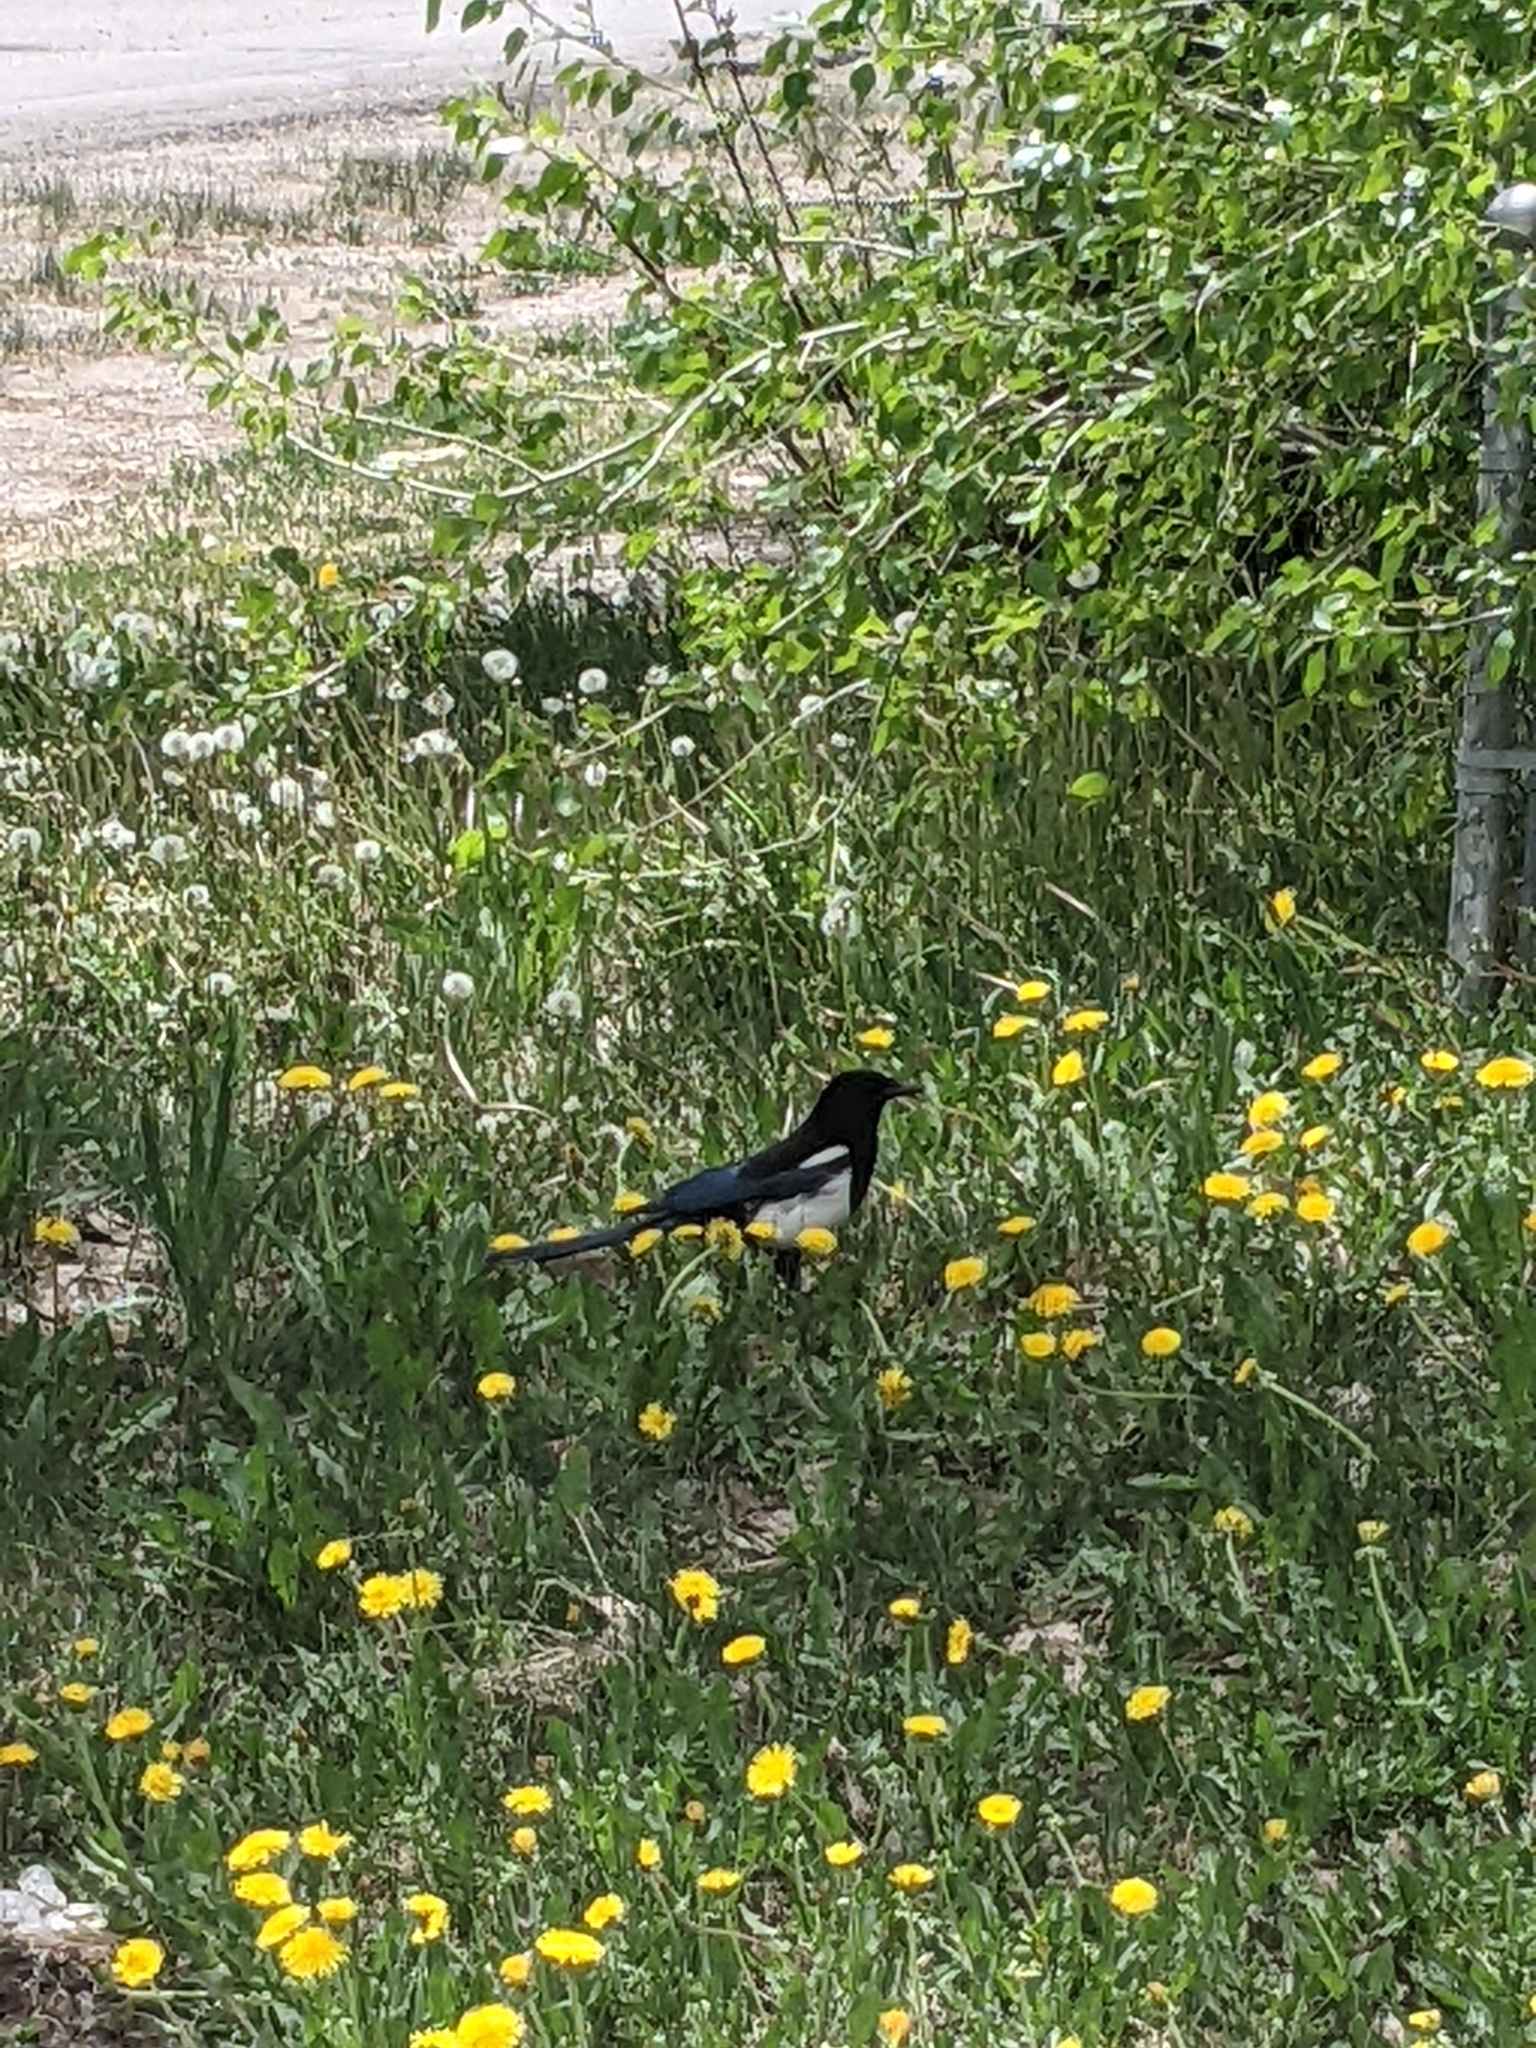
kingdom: Animalia
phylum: Chordata
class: Aves
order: Passeriformes
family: Corvidae
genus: Pica
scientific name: Pica hudsonia
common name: Black-billed magpie
